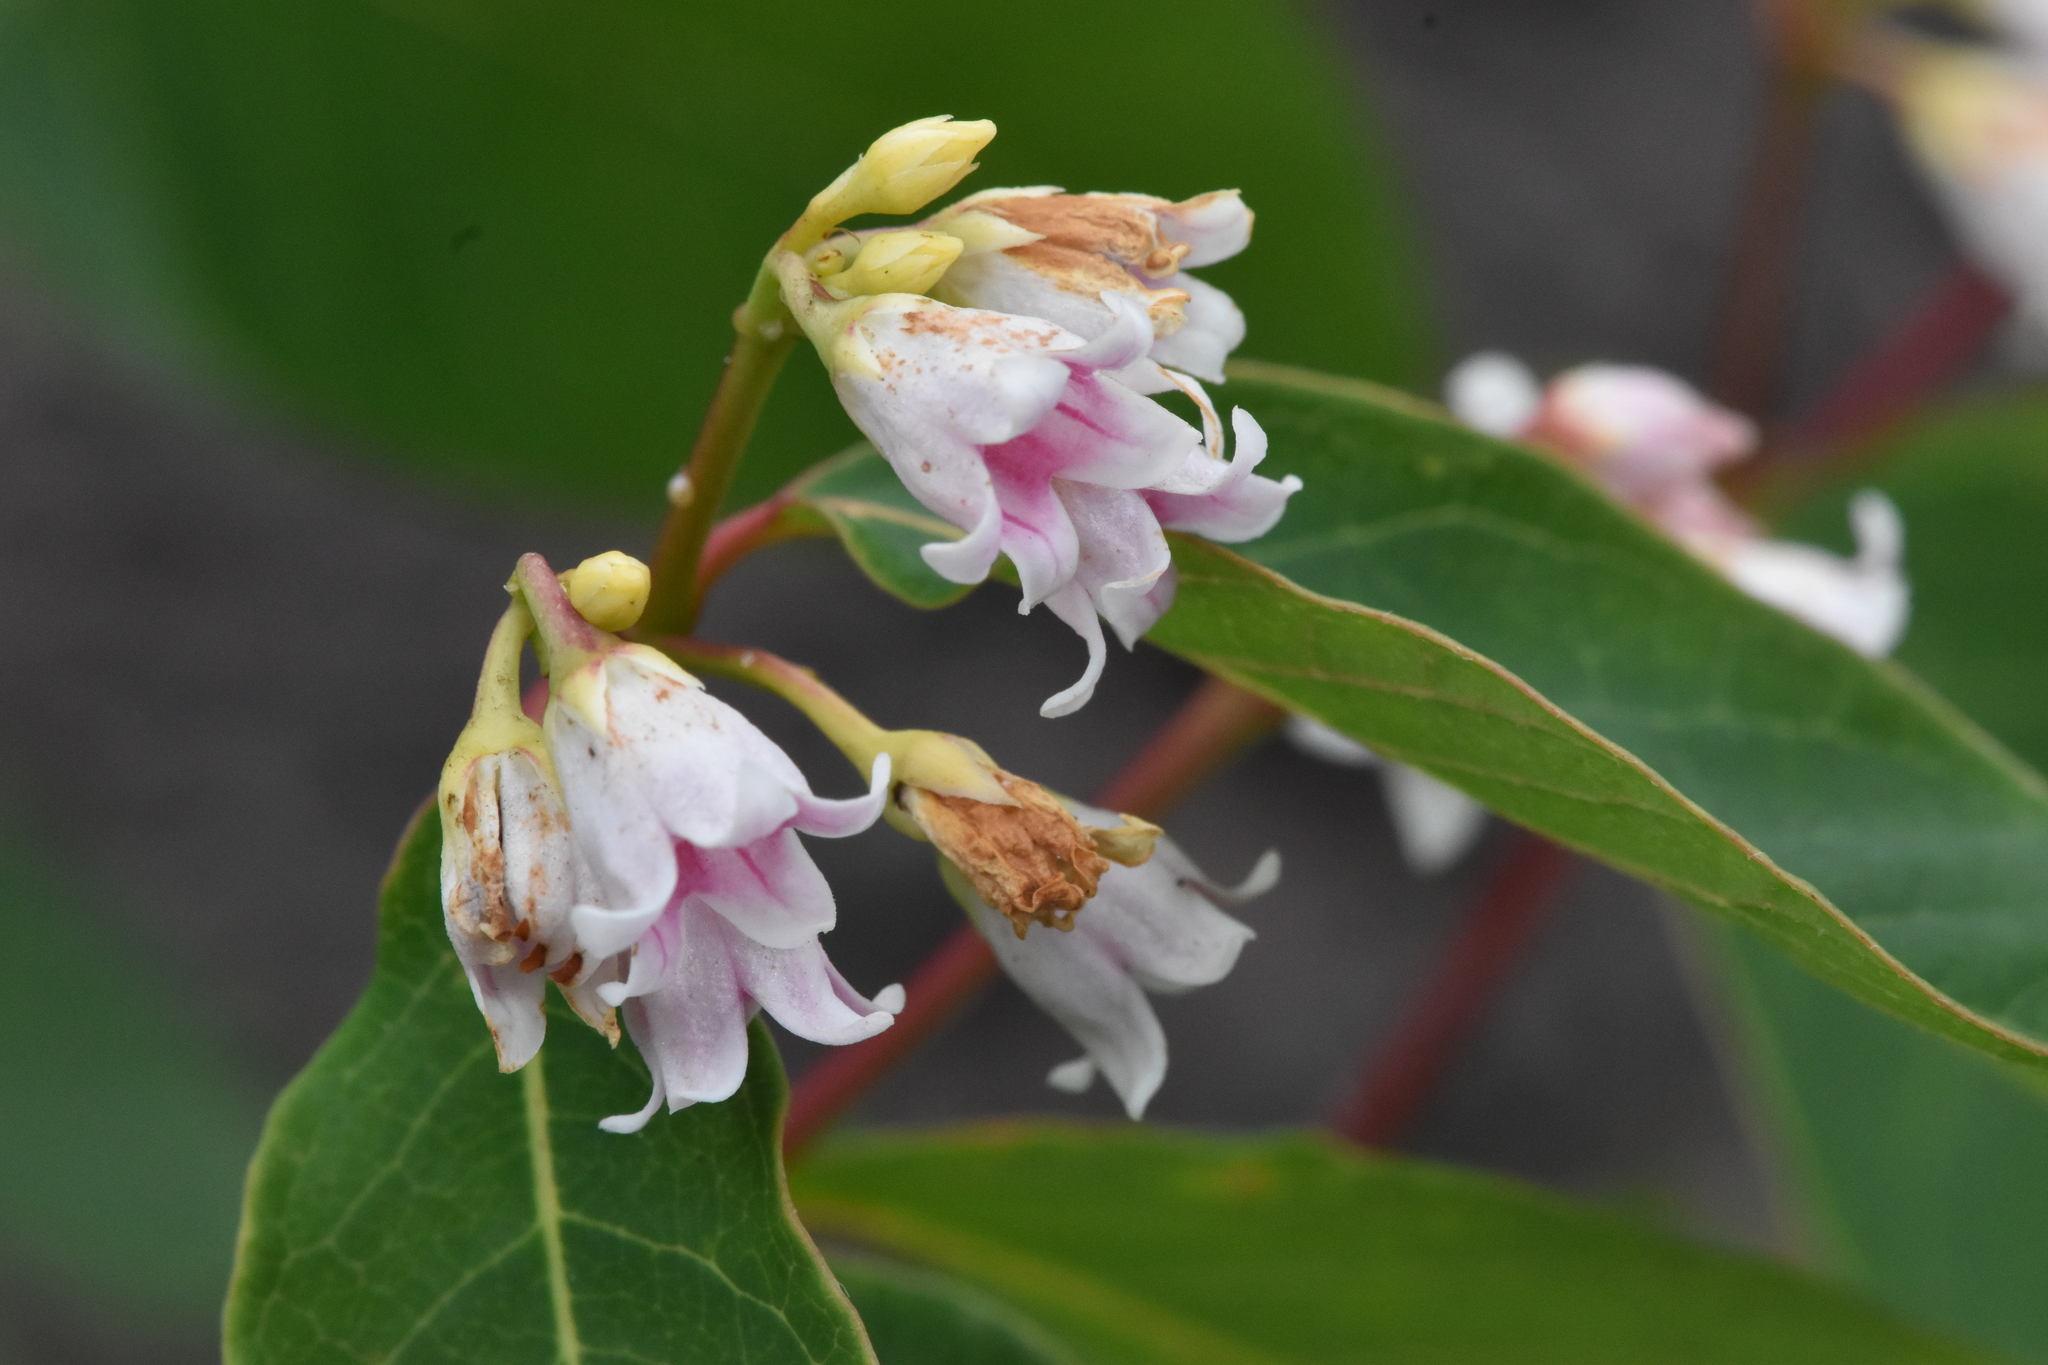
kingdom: Plantae
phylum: Tracheophyta
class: Magnoliopsida
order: Gentianales
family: Apocynaceae
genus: Apocynum
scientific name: Apocynum androsaemifolium
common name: Spreading dogbane
